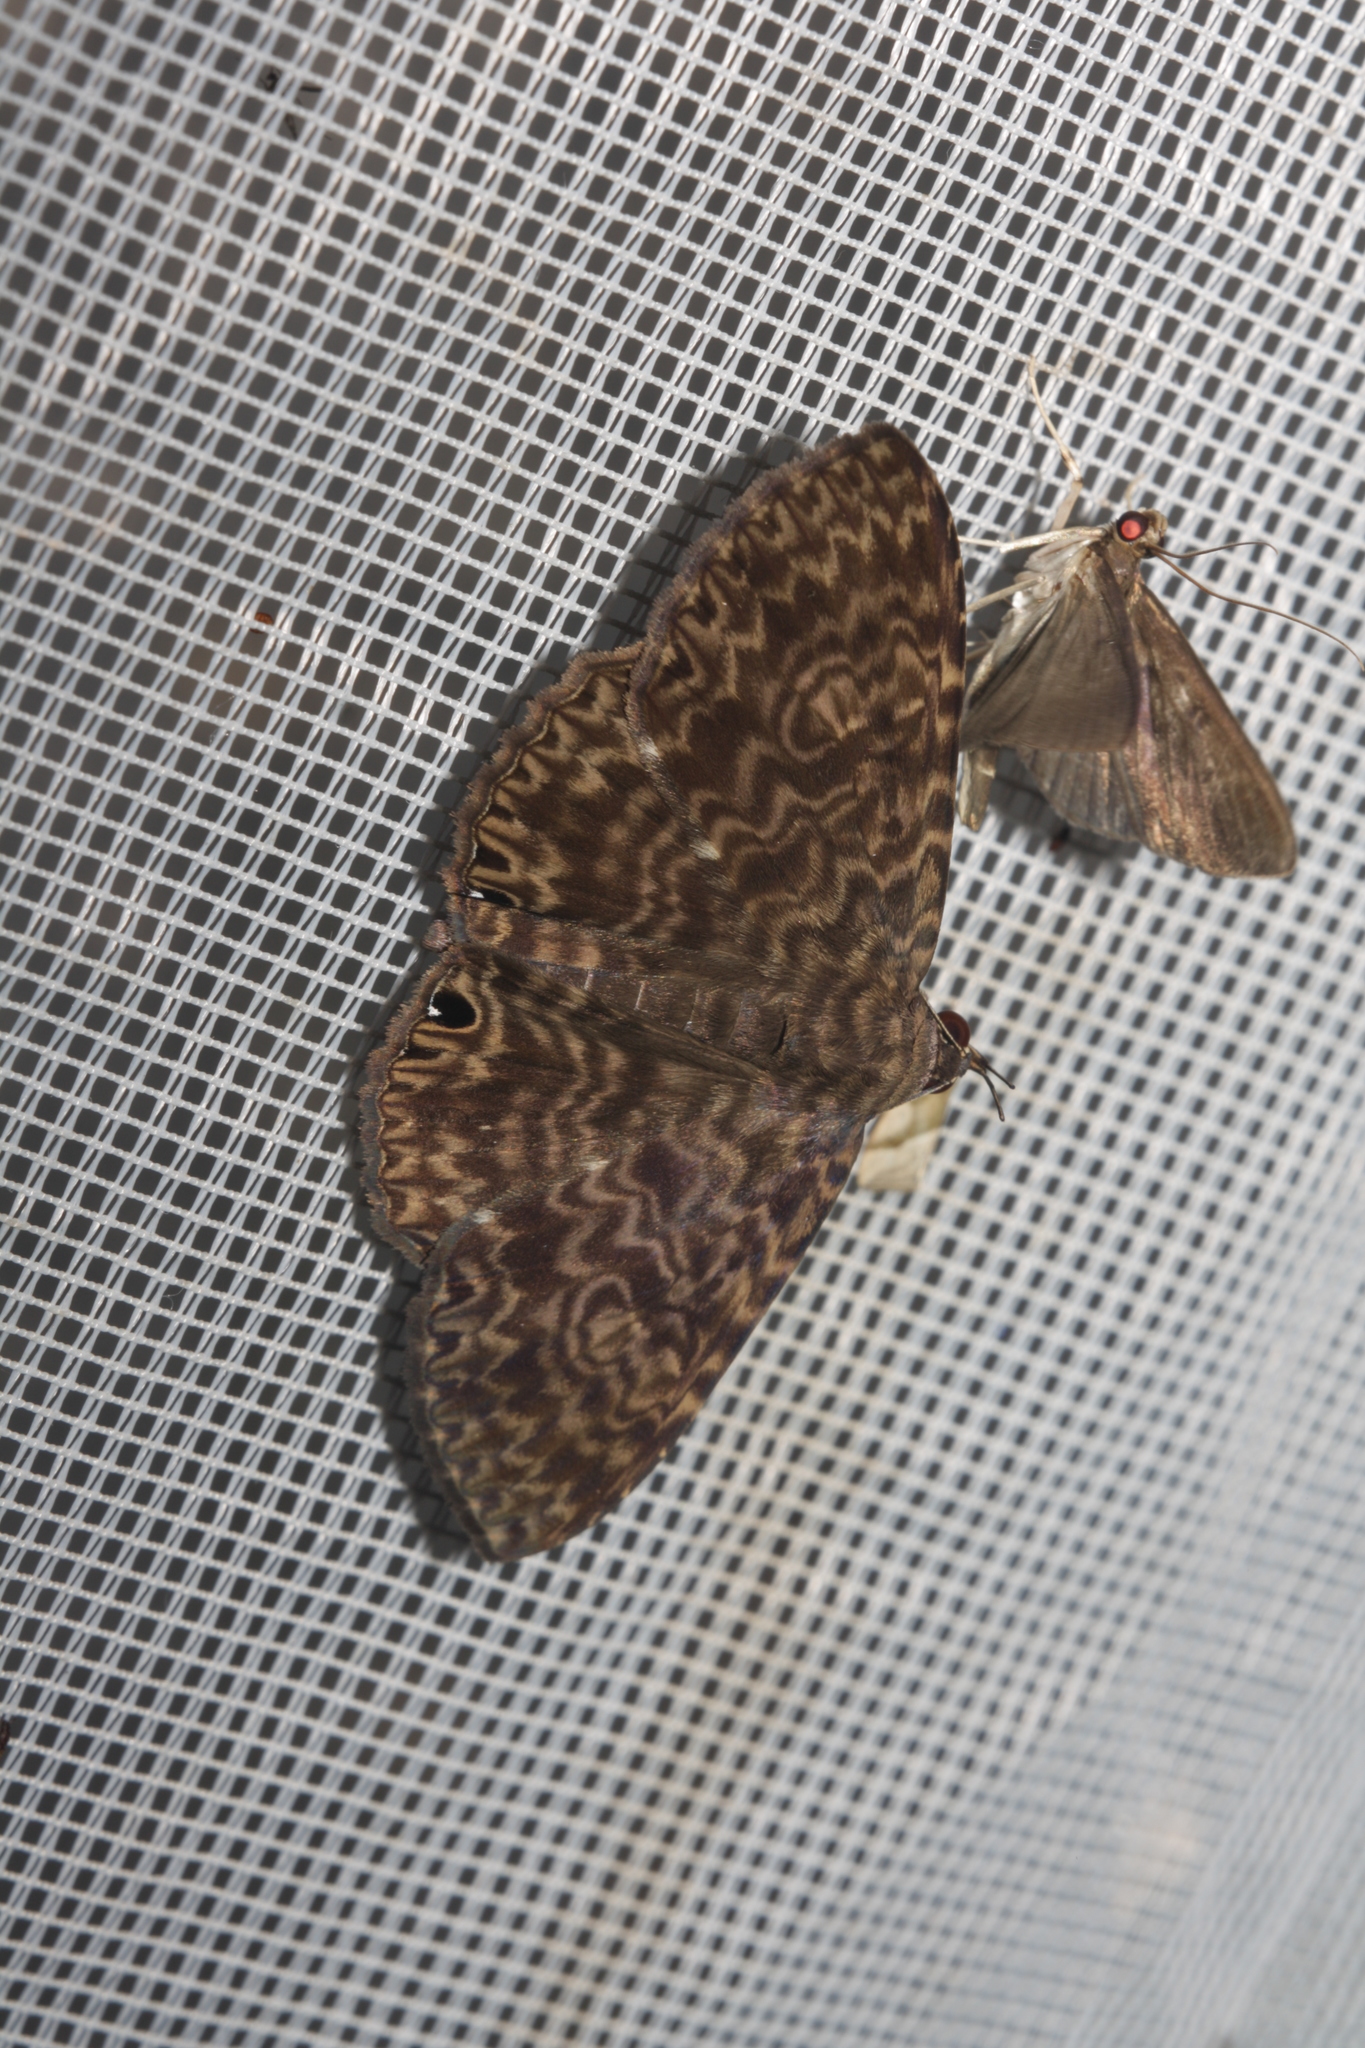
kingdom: Animalia
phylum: Arthropoda
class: Insecta
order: Lepidoptera
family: Erebidae
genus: Dialithis
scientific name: Dialithis gemmifera
